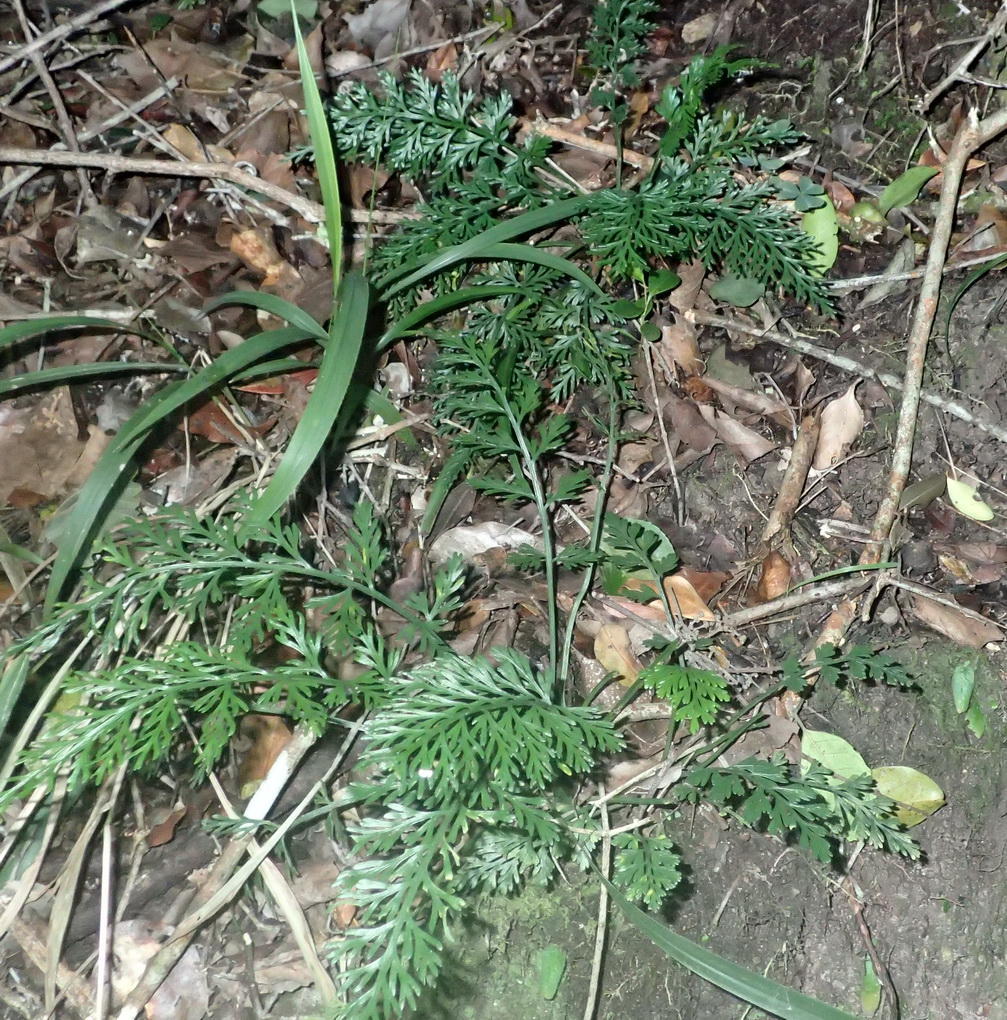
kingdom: Plantae
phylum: Tracheophyta
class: Polypodiopsida
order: Polypodiales
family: Aspleniaceae
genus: Asplenium
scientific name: Asplenium rutifolium
